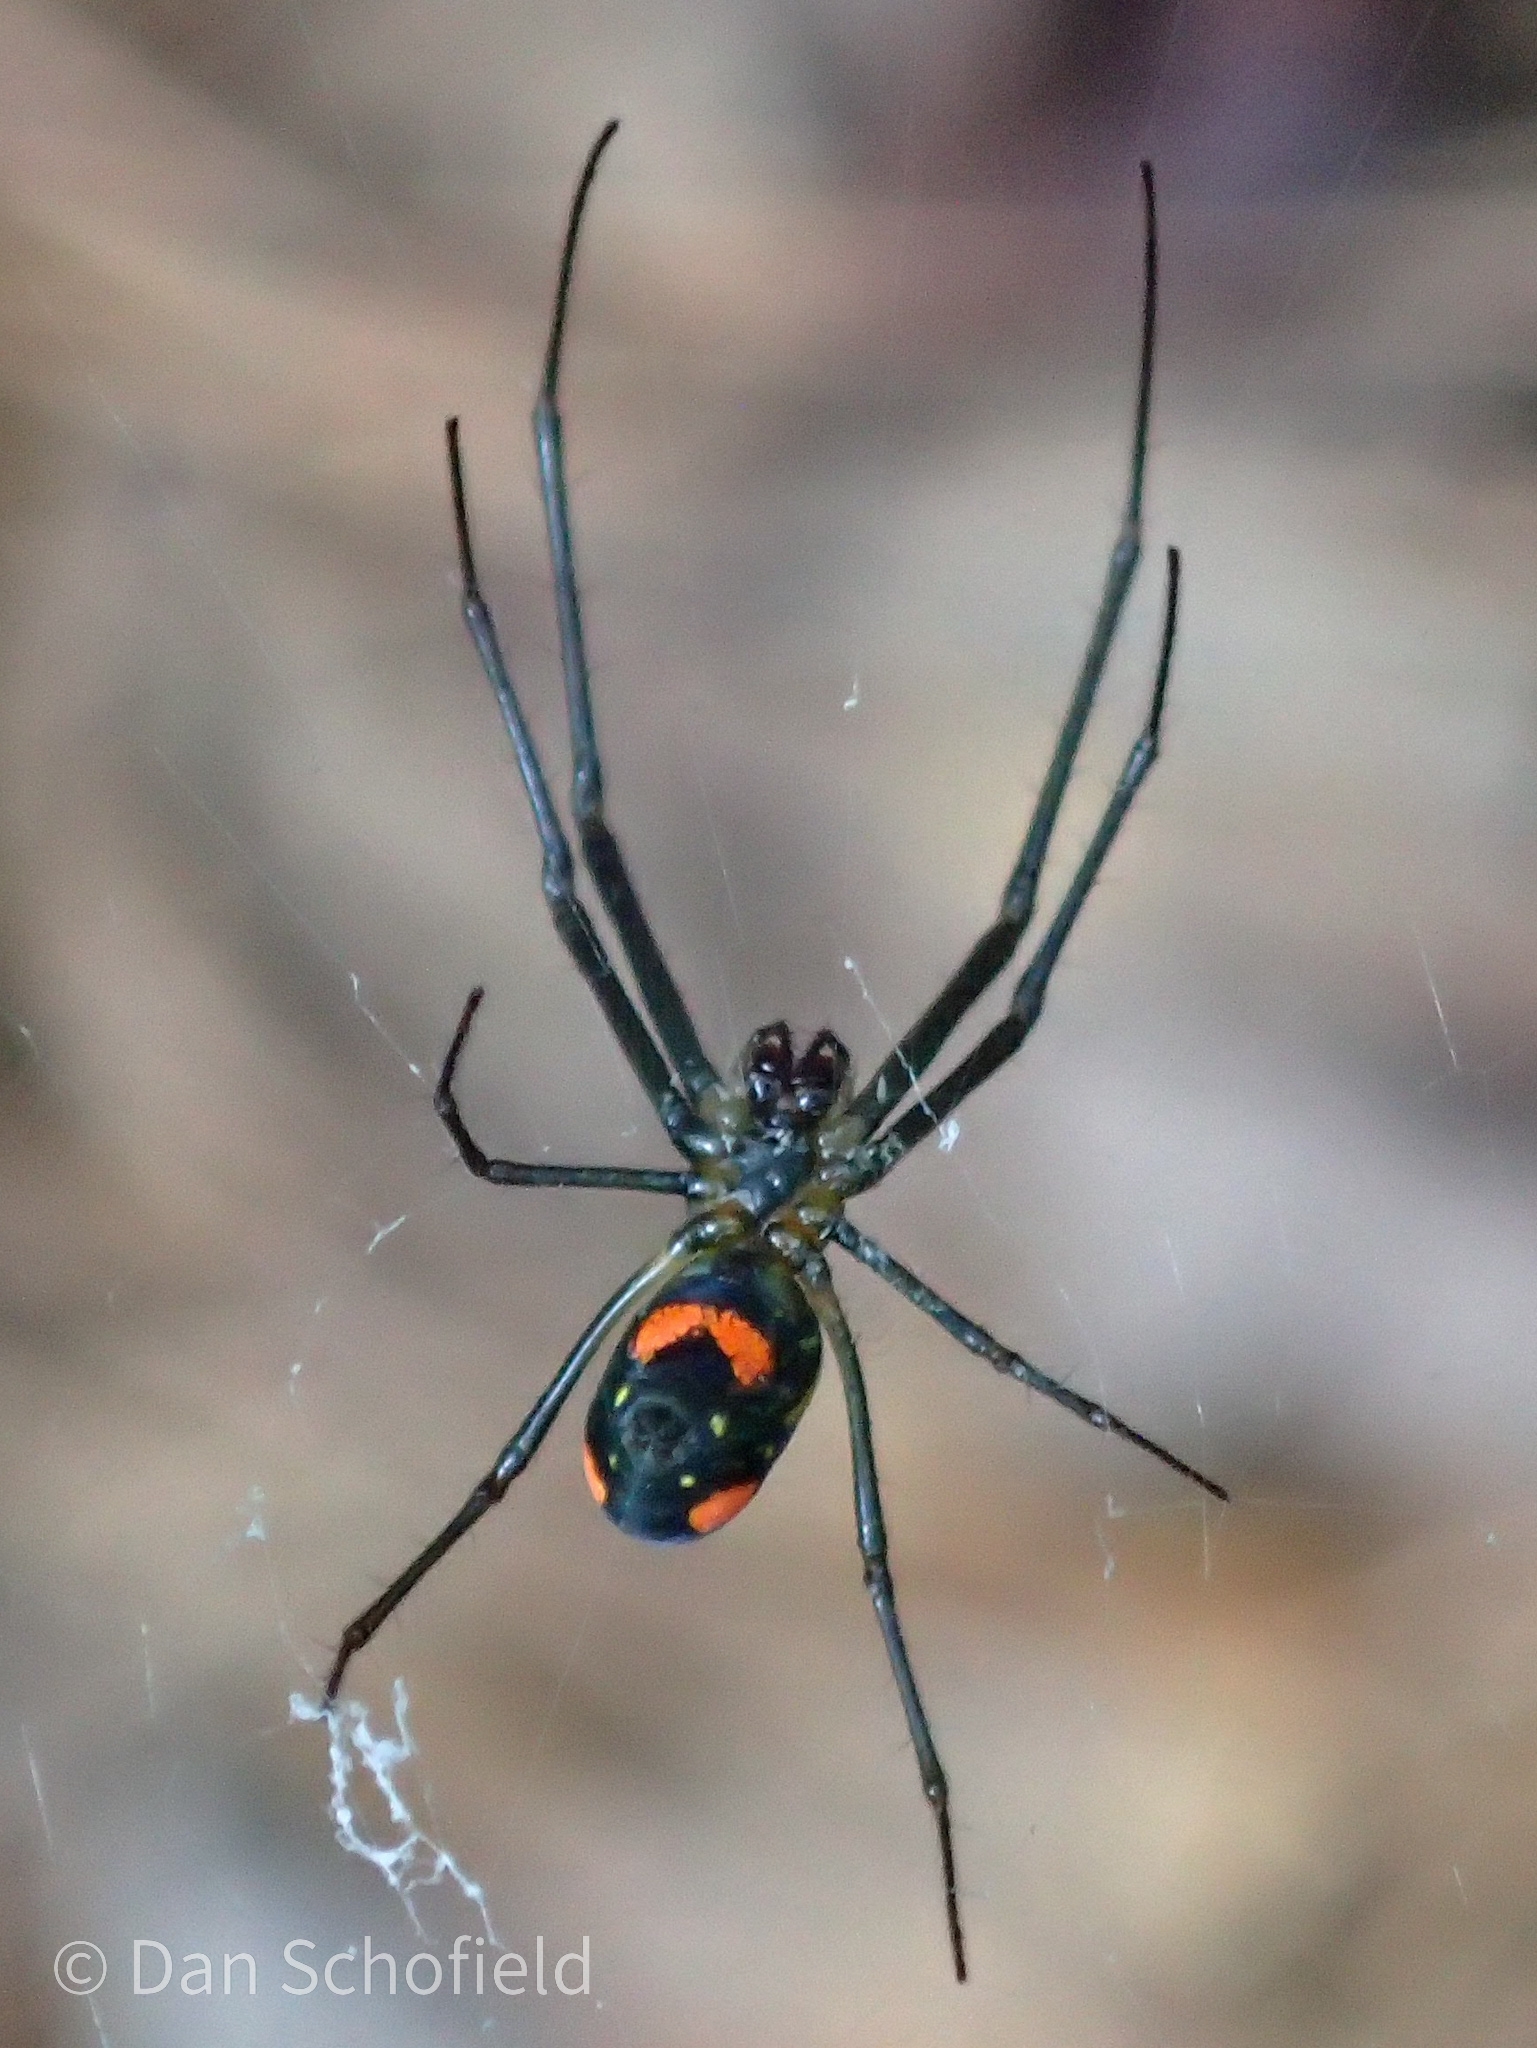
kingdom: Animalia
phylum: Arthropoda
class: Arachnida
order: Araneae
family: Tetragnathidae
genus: Leucauge
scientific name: Leucauge argyrobapta
